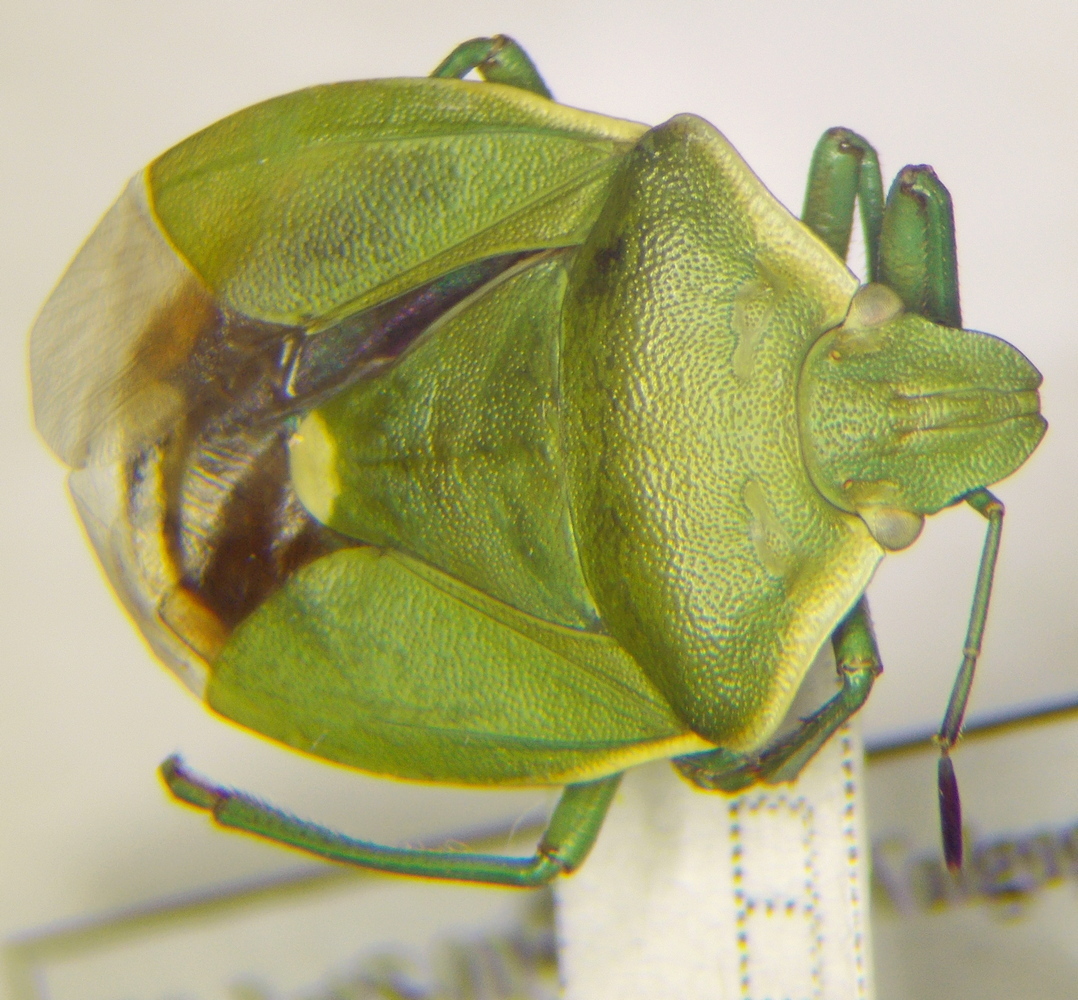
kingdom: Animalia
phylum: Arthropoda
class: Insecta
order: Hemiptera
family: Pentatomidae
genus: Chlorochroa
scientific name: Chlorochroa juniperina
